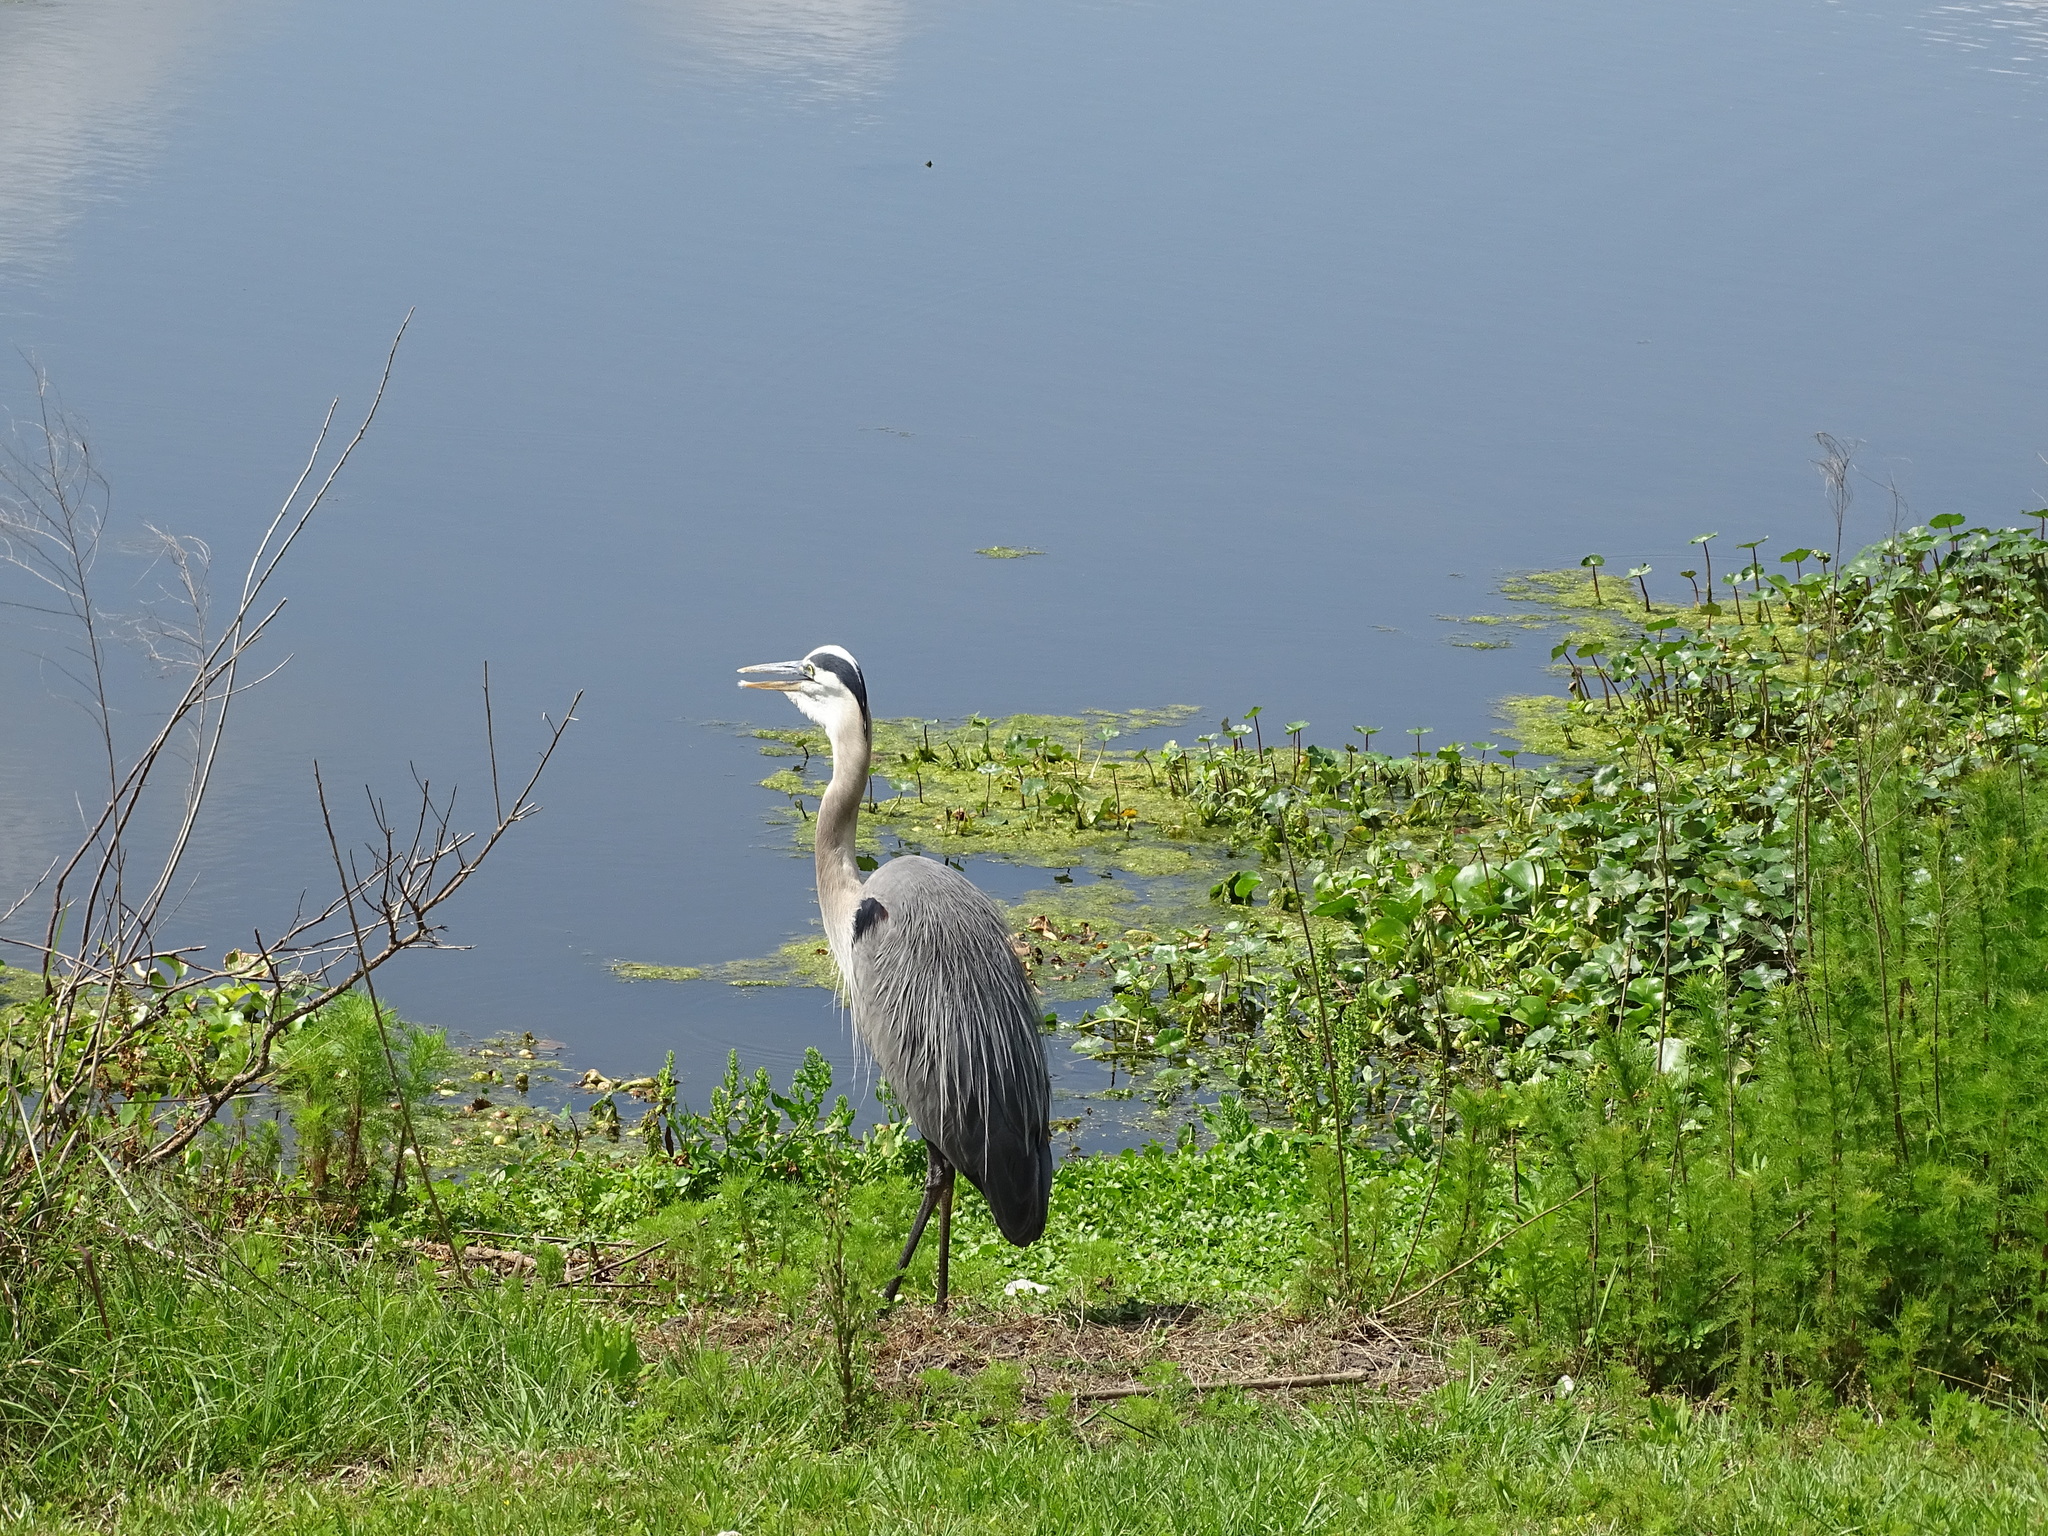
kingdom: Animalia
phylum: Chordata
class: Aves
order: Pelecaniformes
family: Ardeidae
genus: Ardea
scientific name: Ardea herodias
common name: Great blue heron
